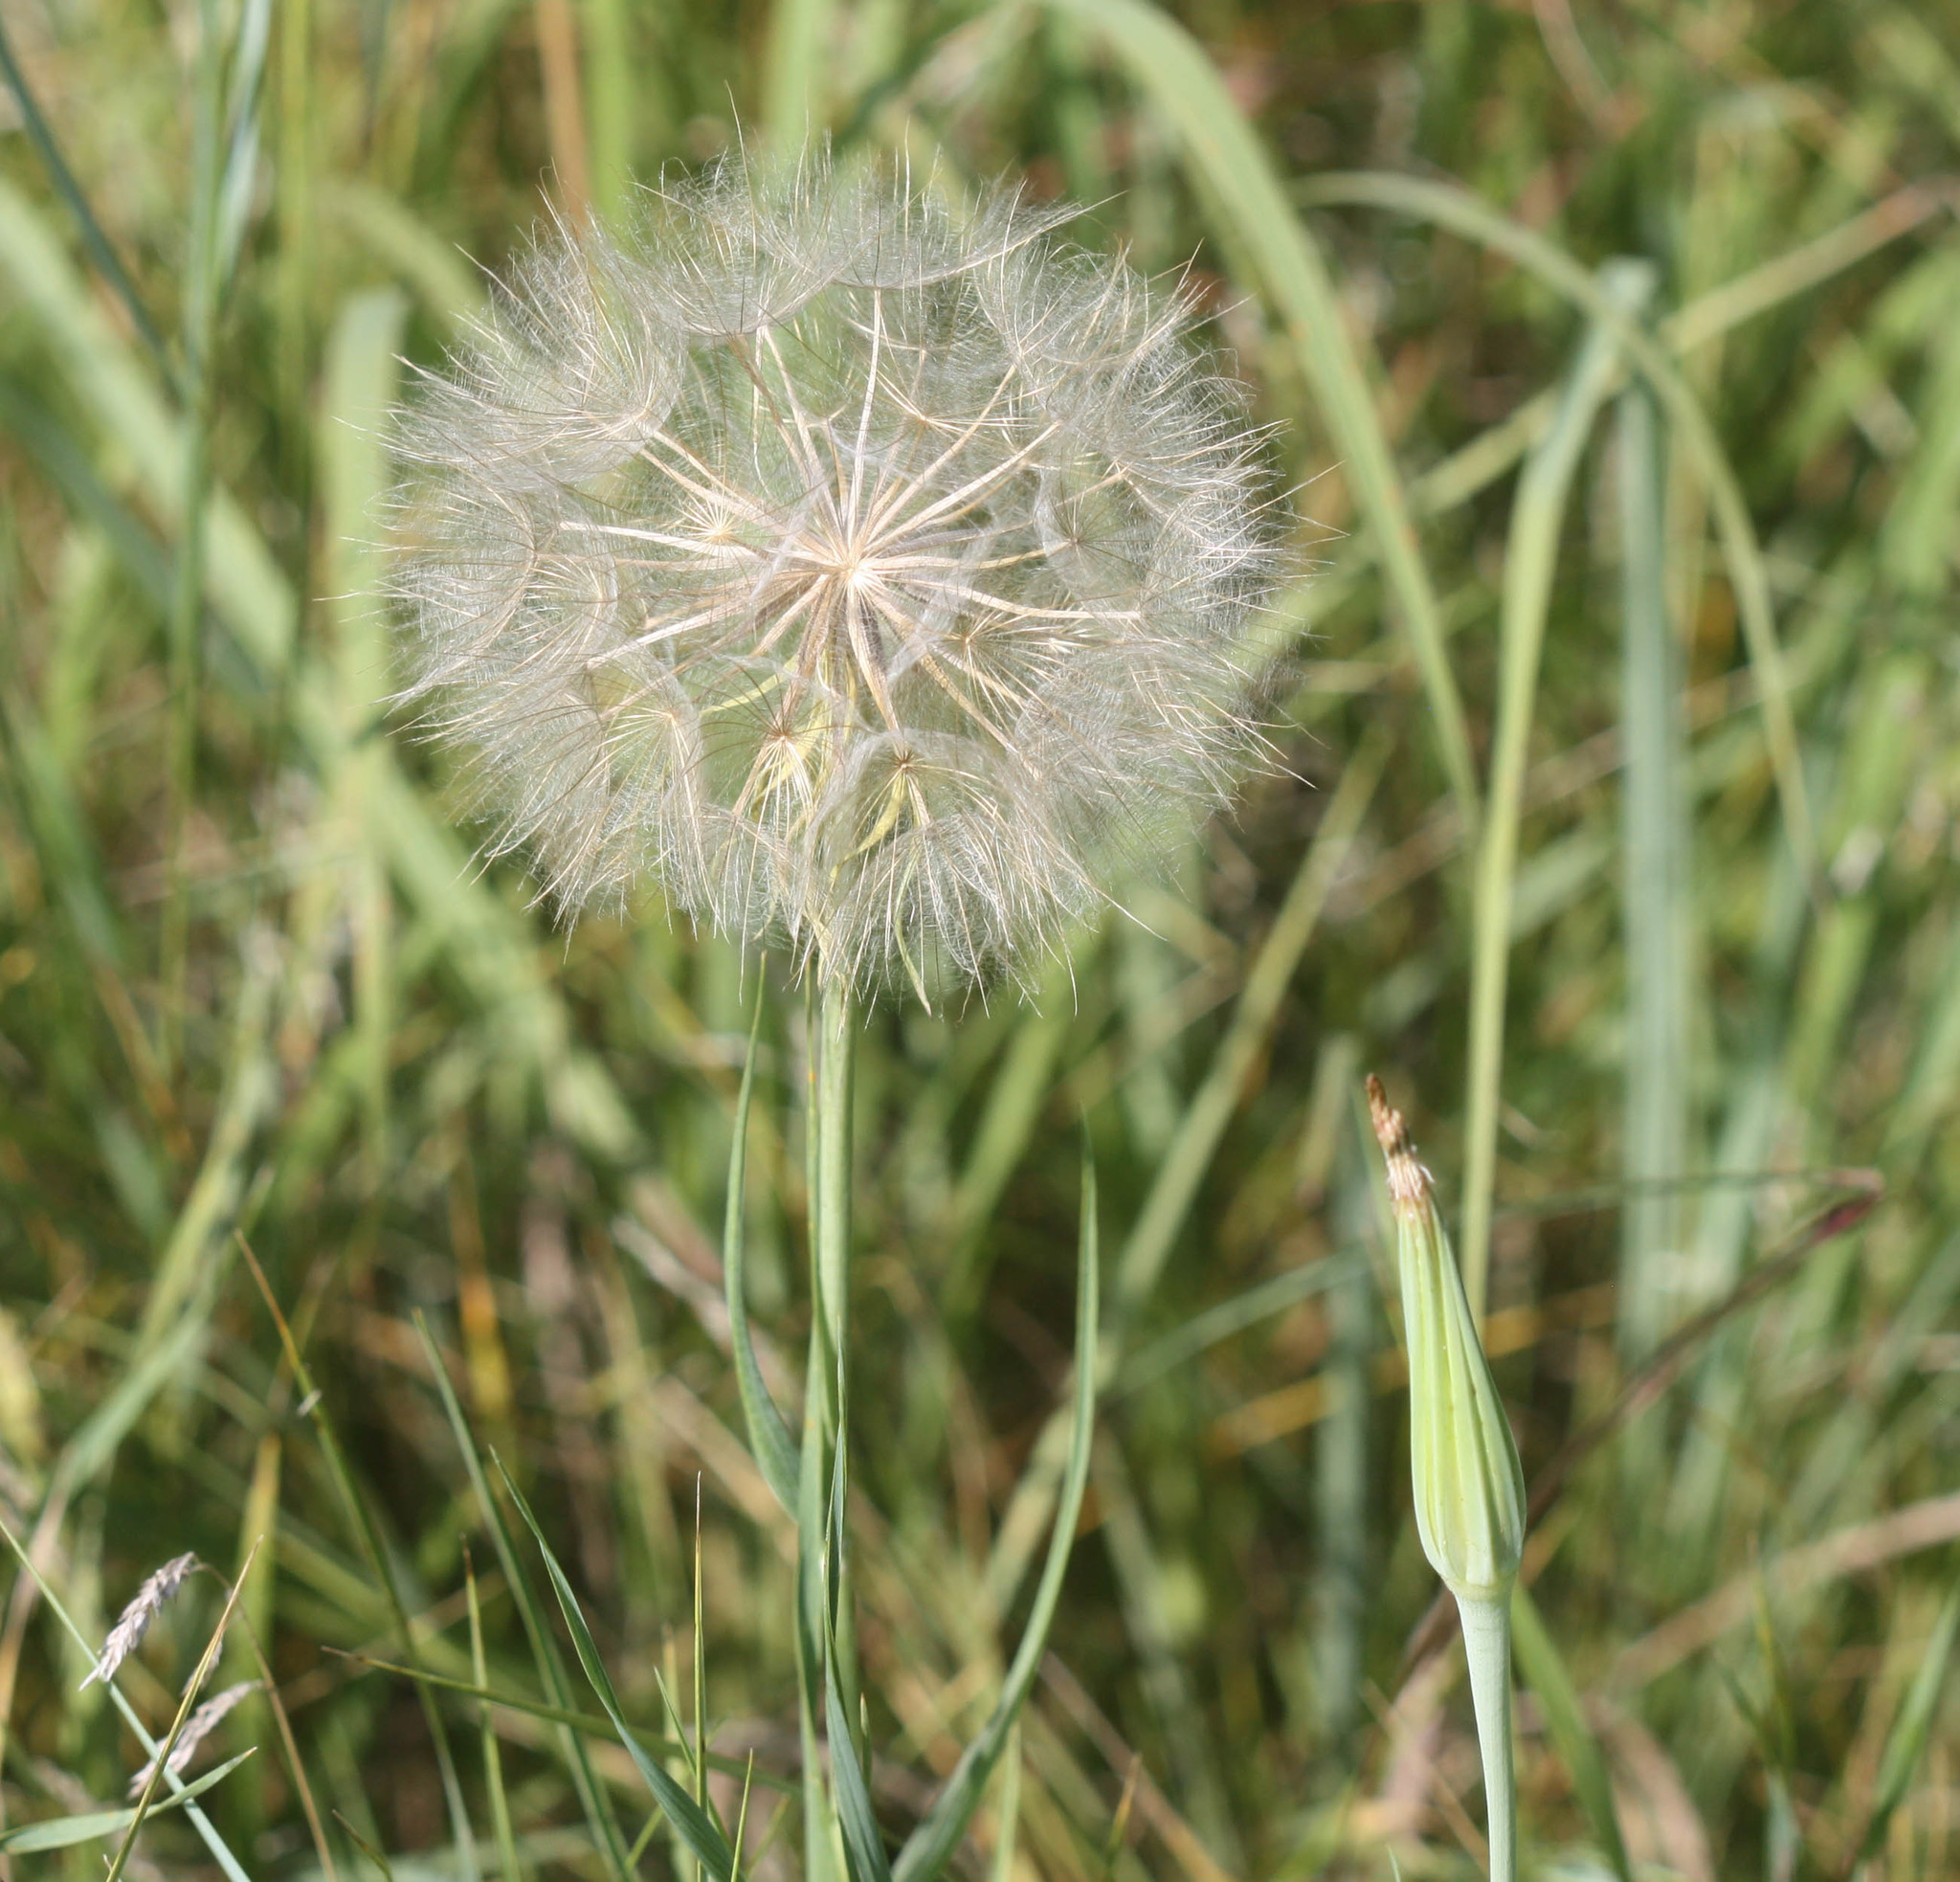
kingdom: Plantae
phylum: Tracheophyta
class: Magnoliopsida
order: Asterales
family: Asteraceae
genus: Tragopogon
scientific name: Tragopogon dubius
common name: Yellow salsify
